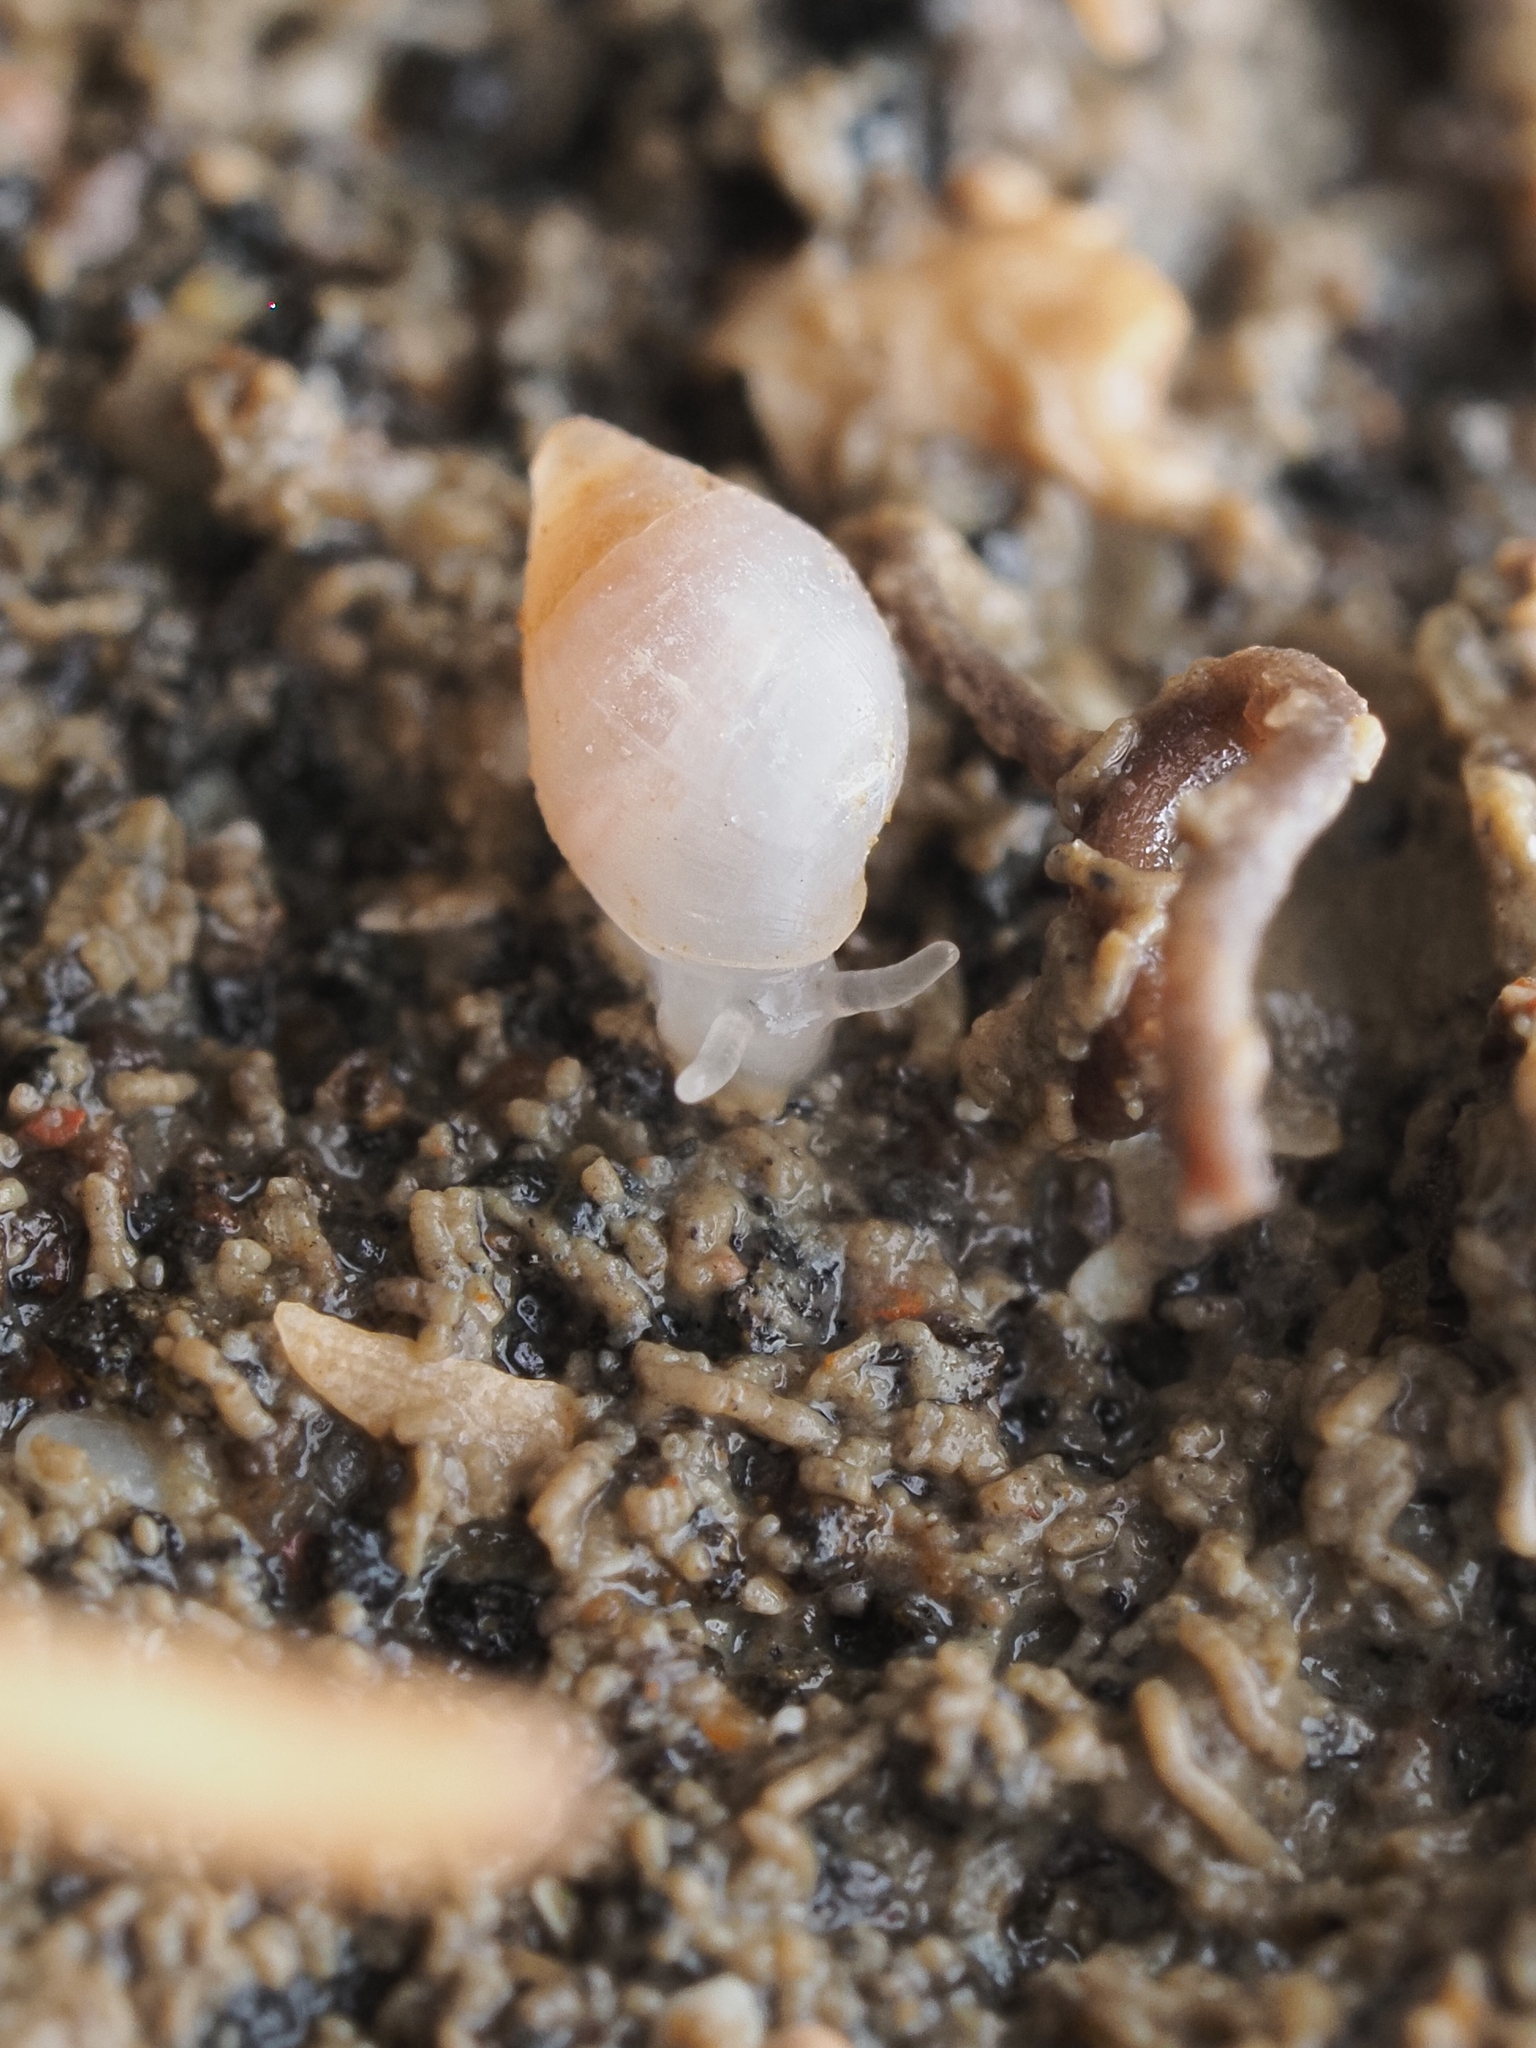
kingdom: Animalia
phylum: Mollusca
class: Gastropoda
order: Ellobiida
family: Ellobiidae
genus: Leuconopsis
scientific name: Leuconopsis obsoleta
